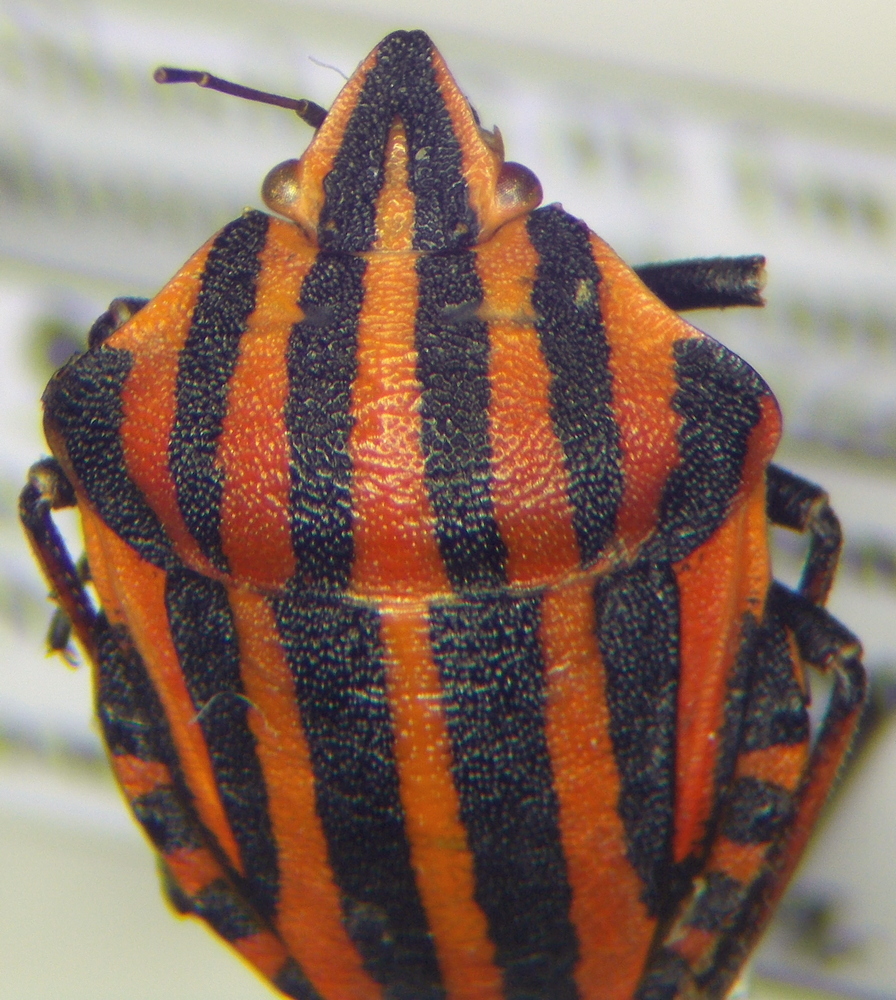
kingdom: Animalia
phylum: Arthropoda
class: Insecta
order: Hemiptera
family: Pentatomidae
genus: Graphosoma
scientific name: Graphosoma italicum
